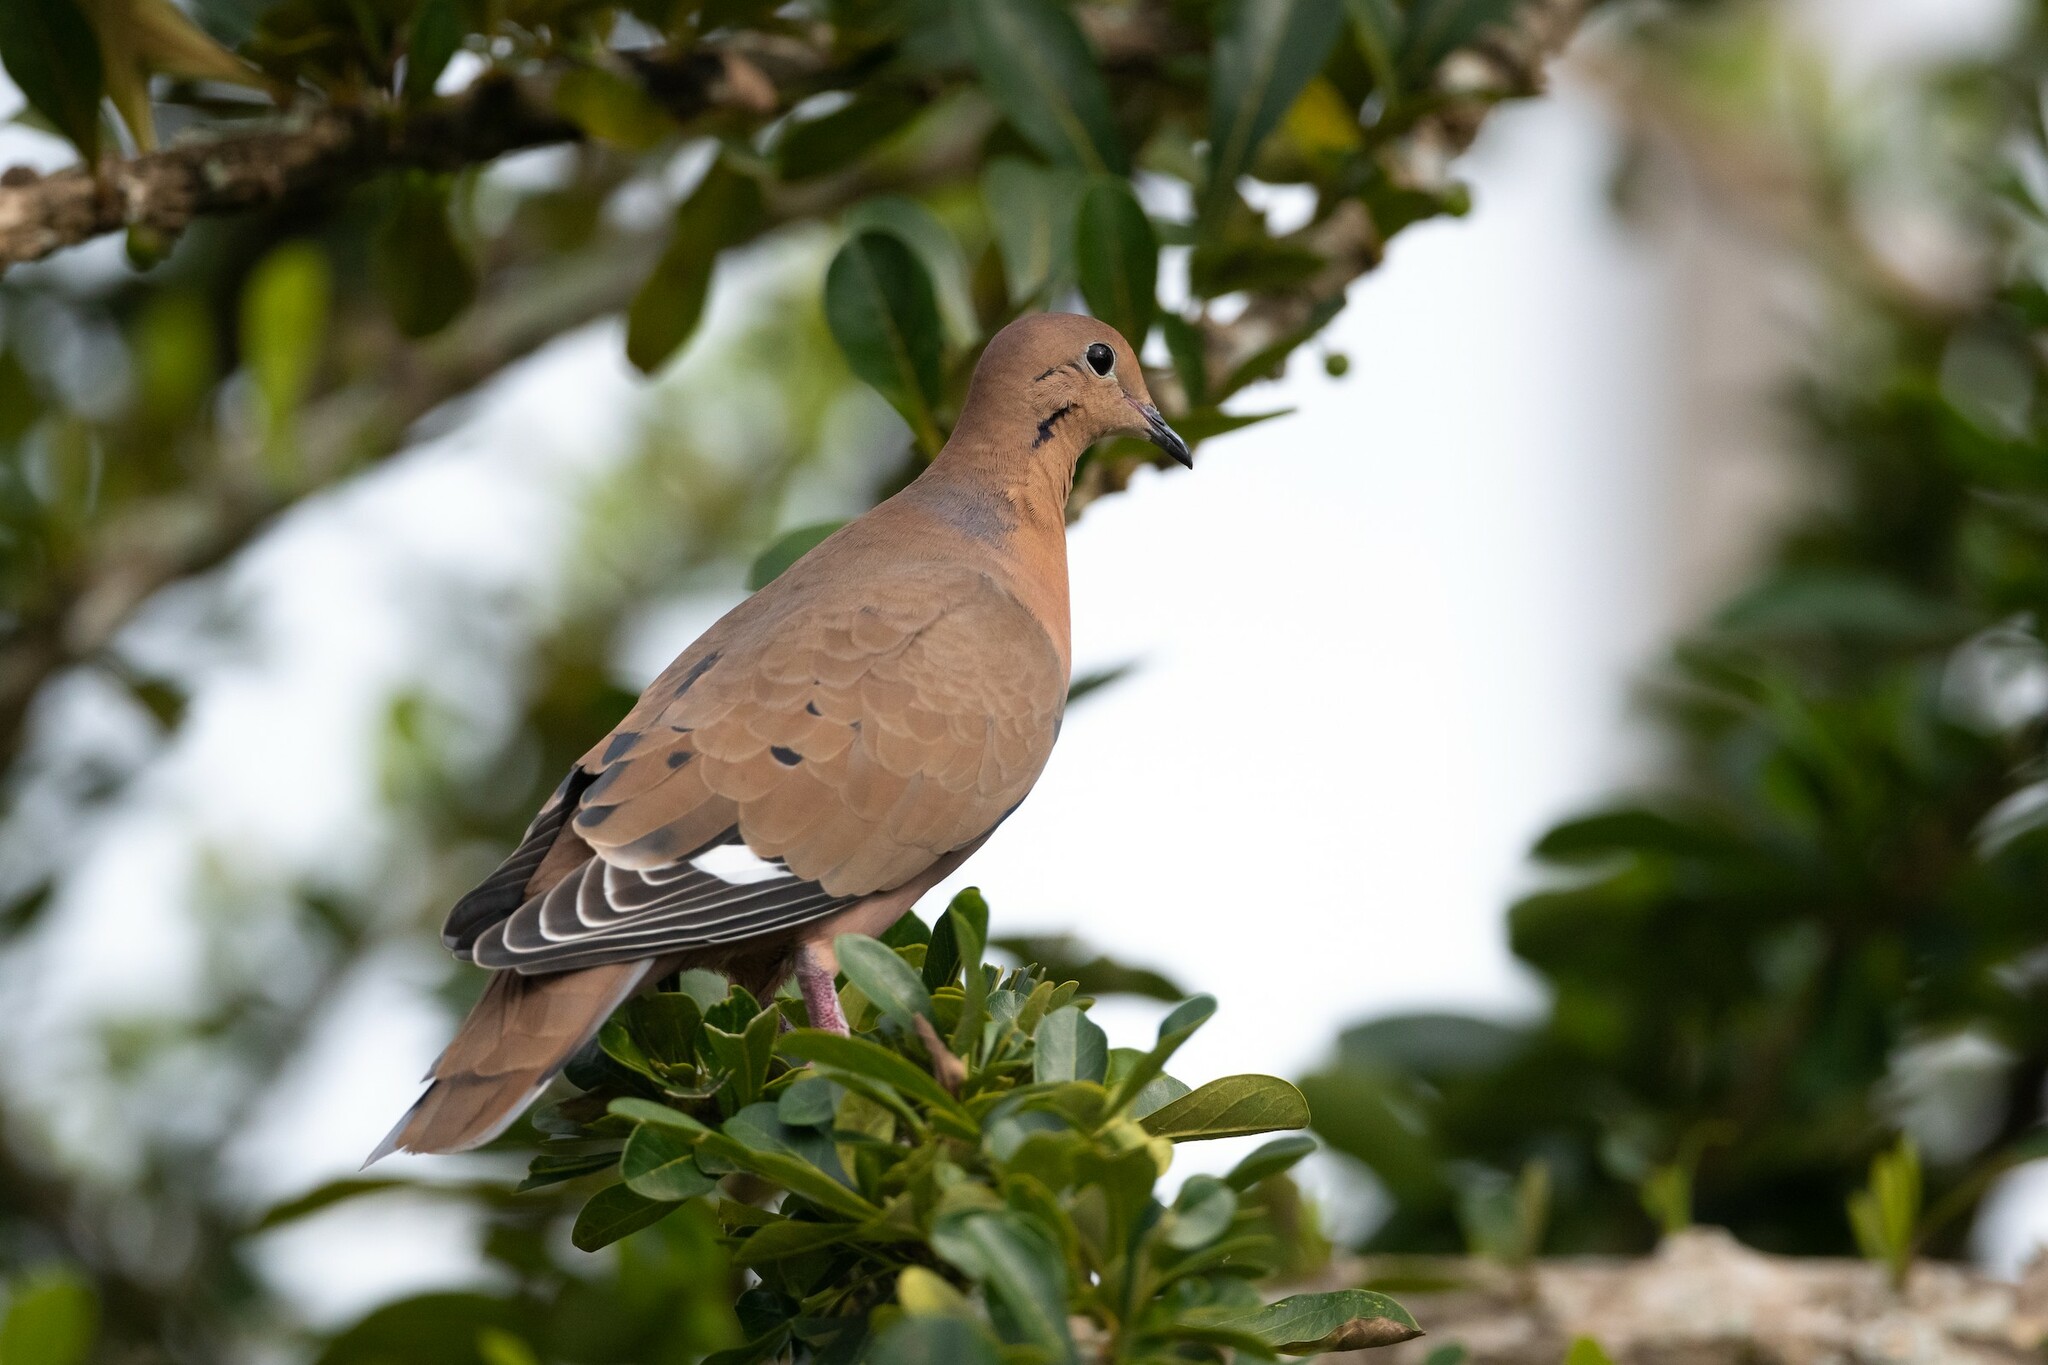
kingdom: Animalia
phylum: Chordata
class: Aves
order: Columbiformes
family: Columbidae
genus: Zenaida
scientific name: Zenaida aurita
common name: Zenaida dove
